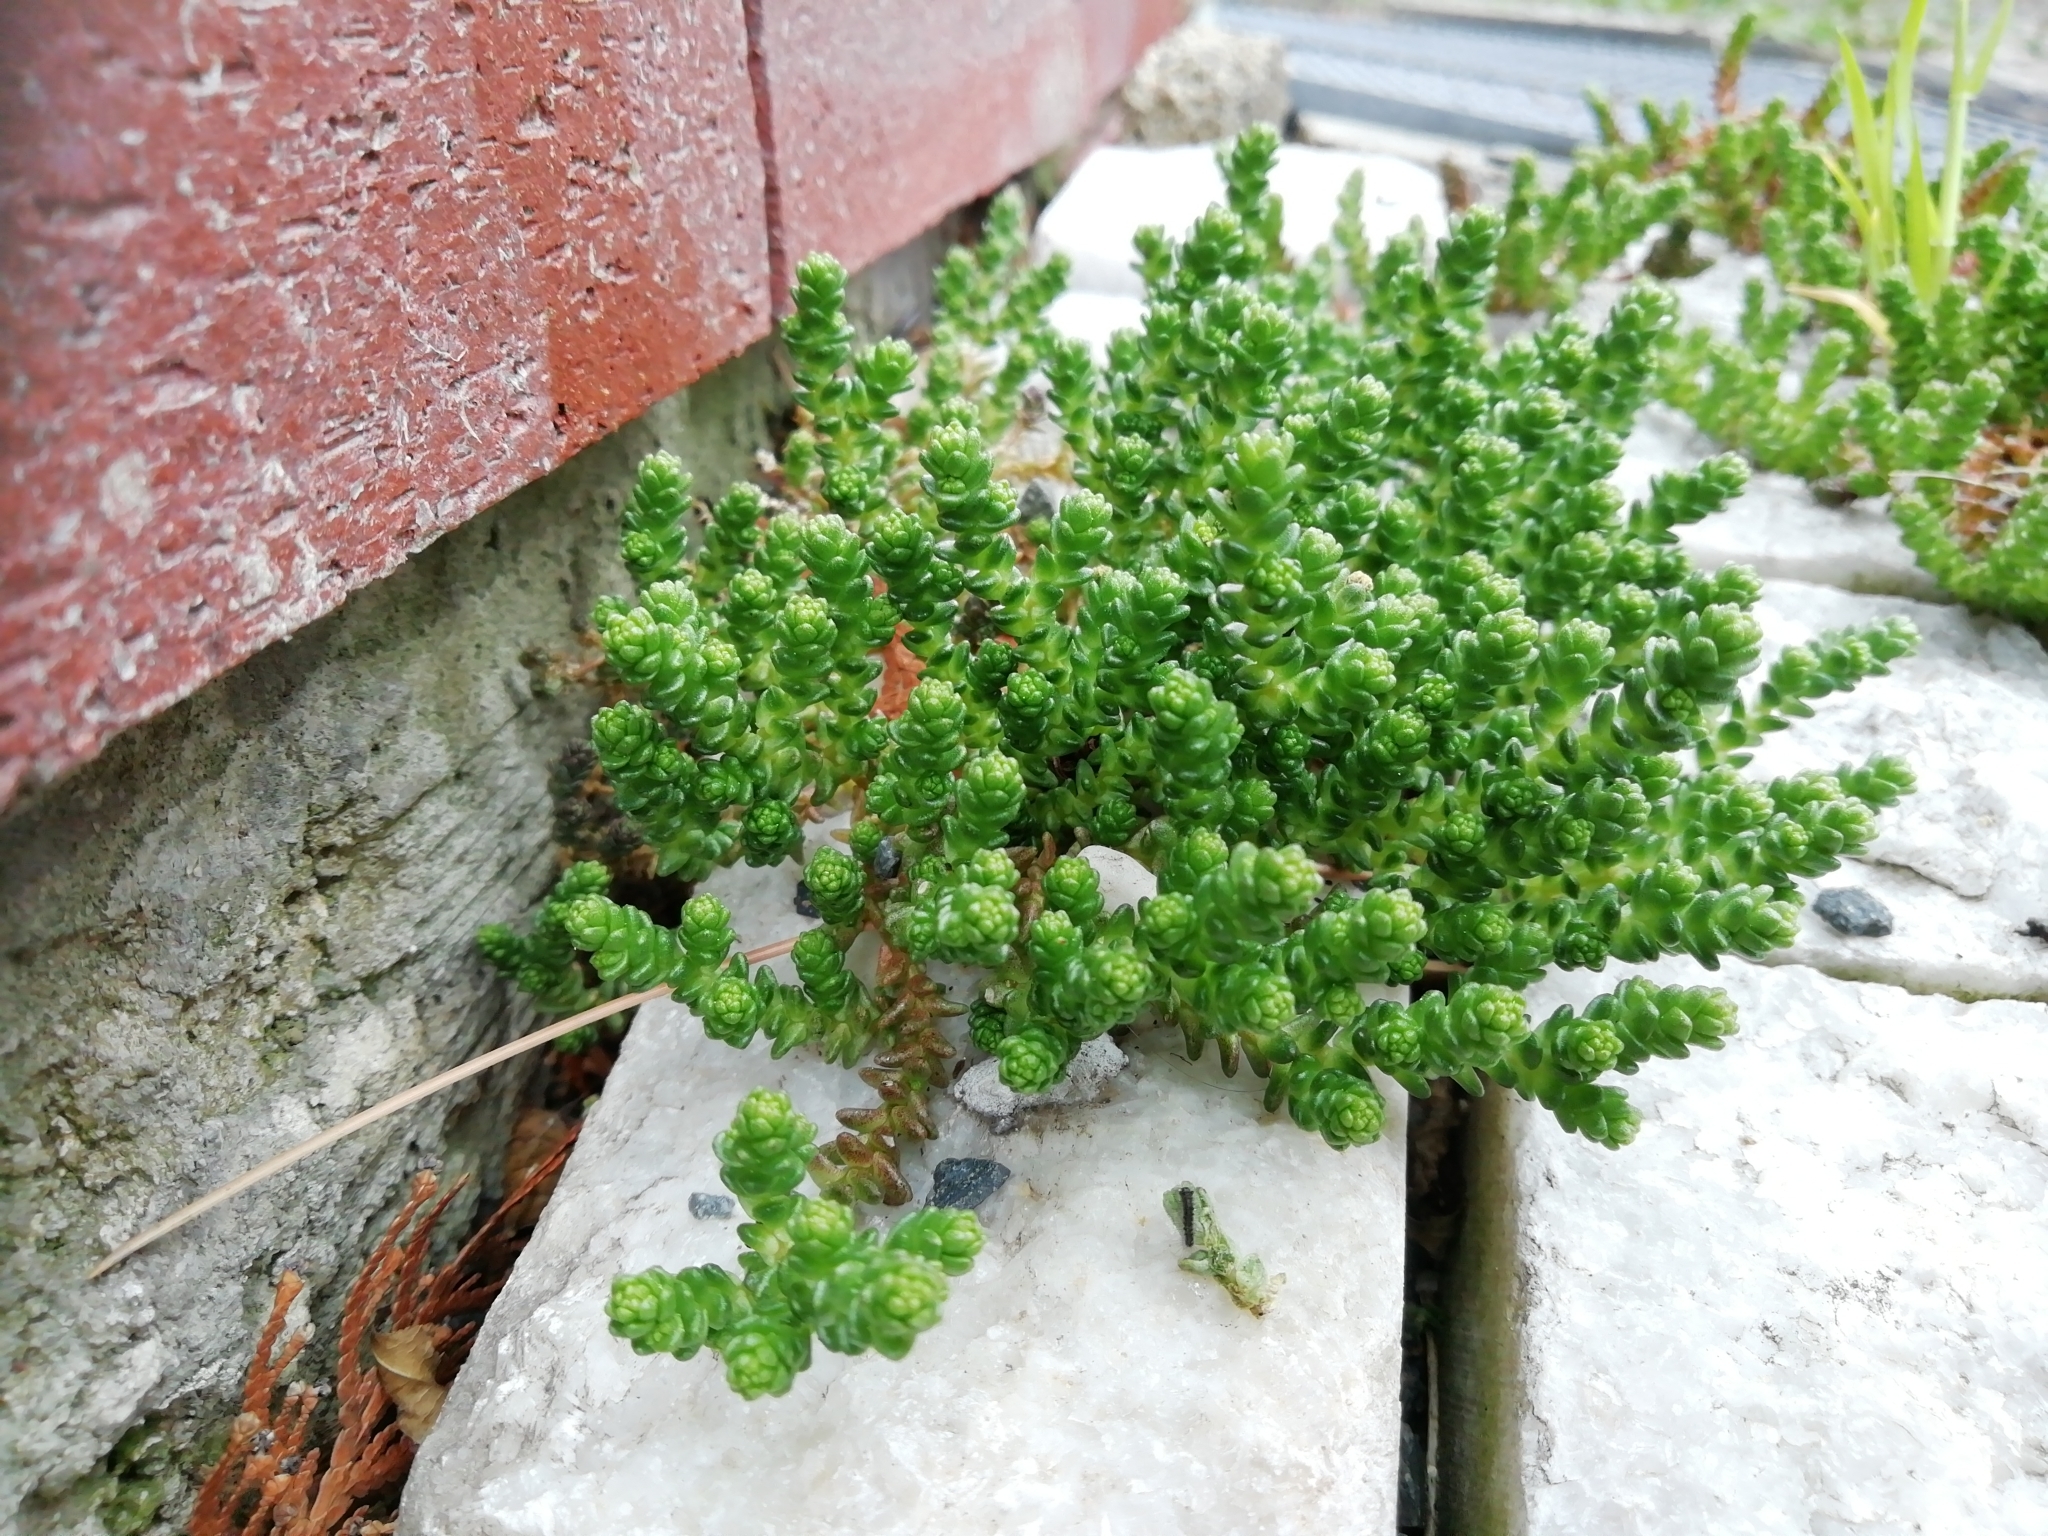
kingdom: Plantae
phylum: Tracheophyta
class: Magnoliopsida
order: Saxifragales
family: Crassulaceae
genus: Sedum
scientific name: Sedum acre
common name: Biting stonecrop
